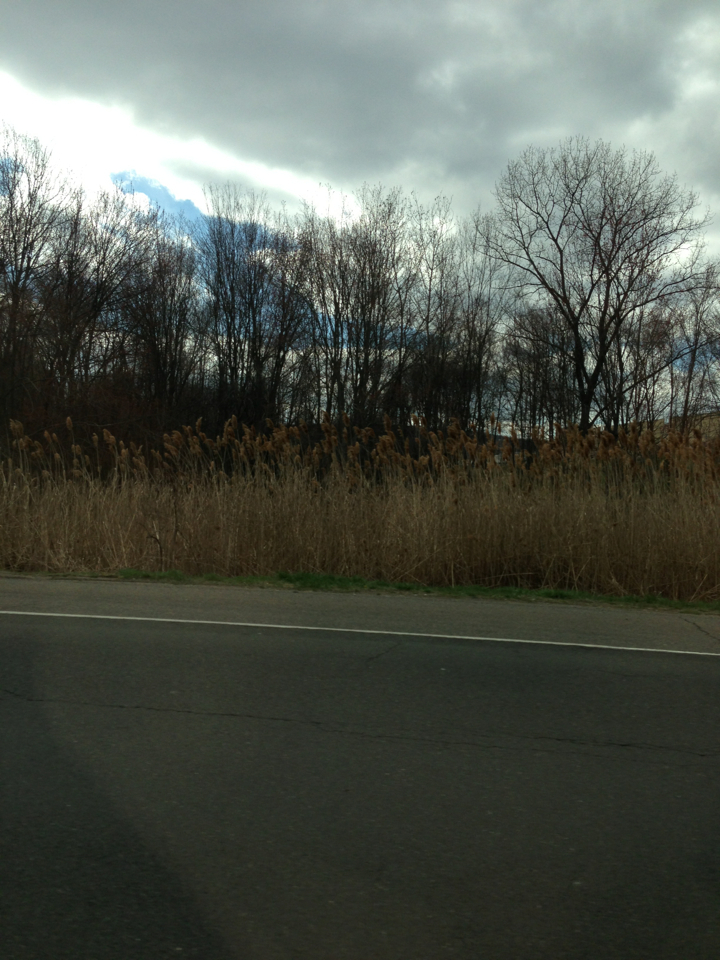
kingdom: Plantae
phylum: Tracheophyta
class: Liliopsida
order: Poales
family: Poaceae
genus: Phragmites
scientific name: Phragmites australis
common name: Common reed
